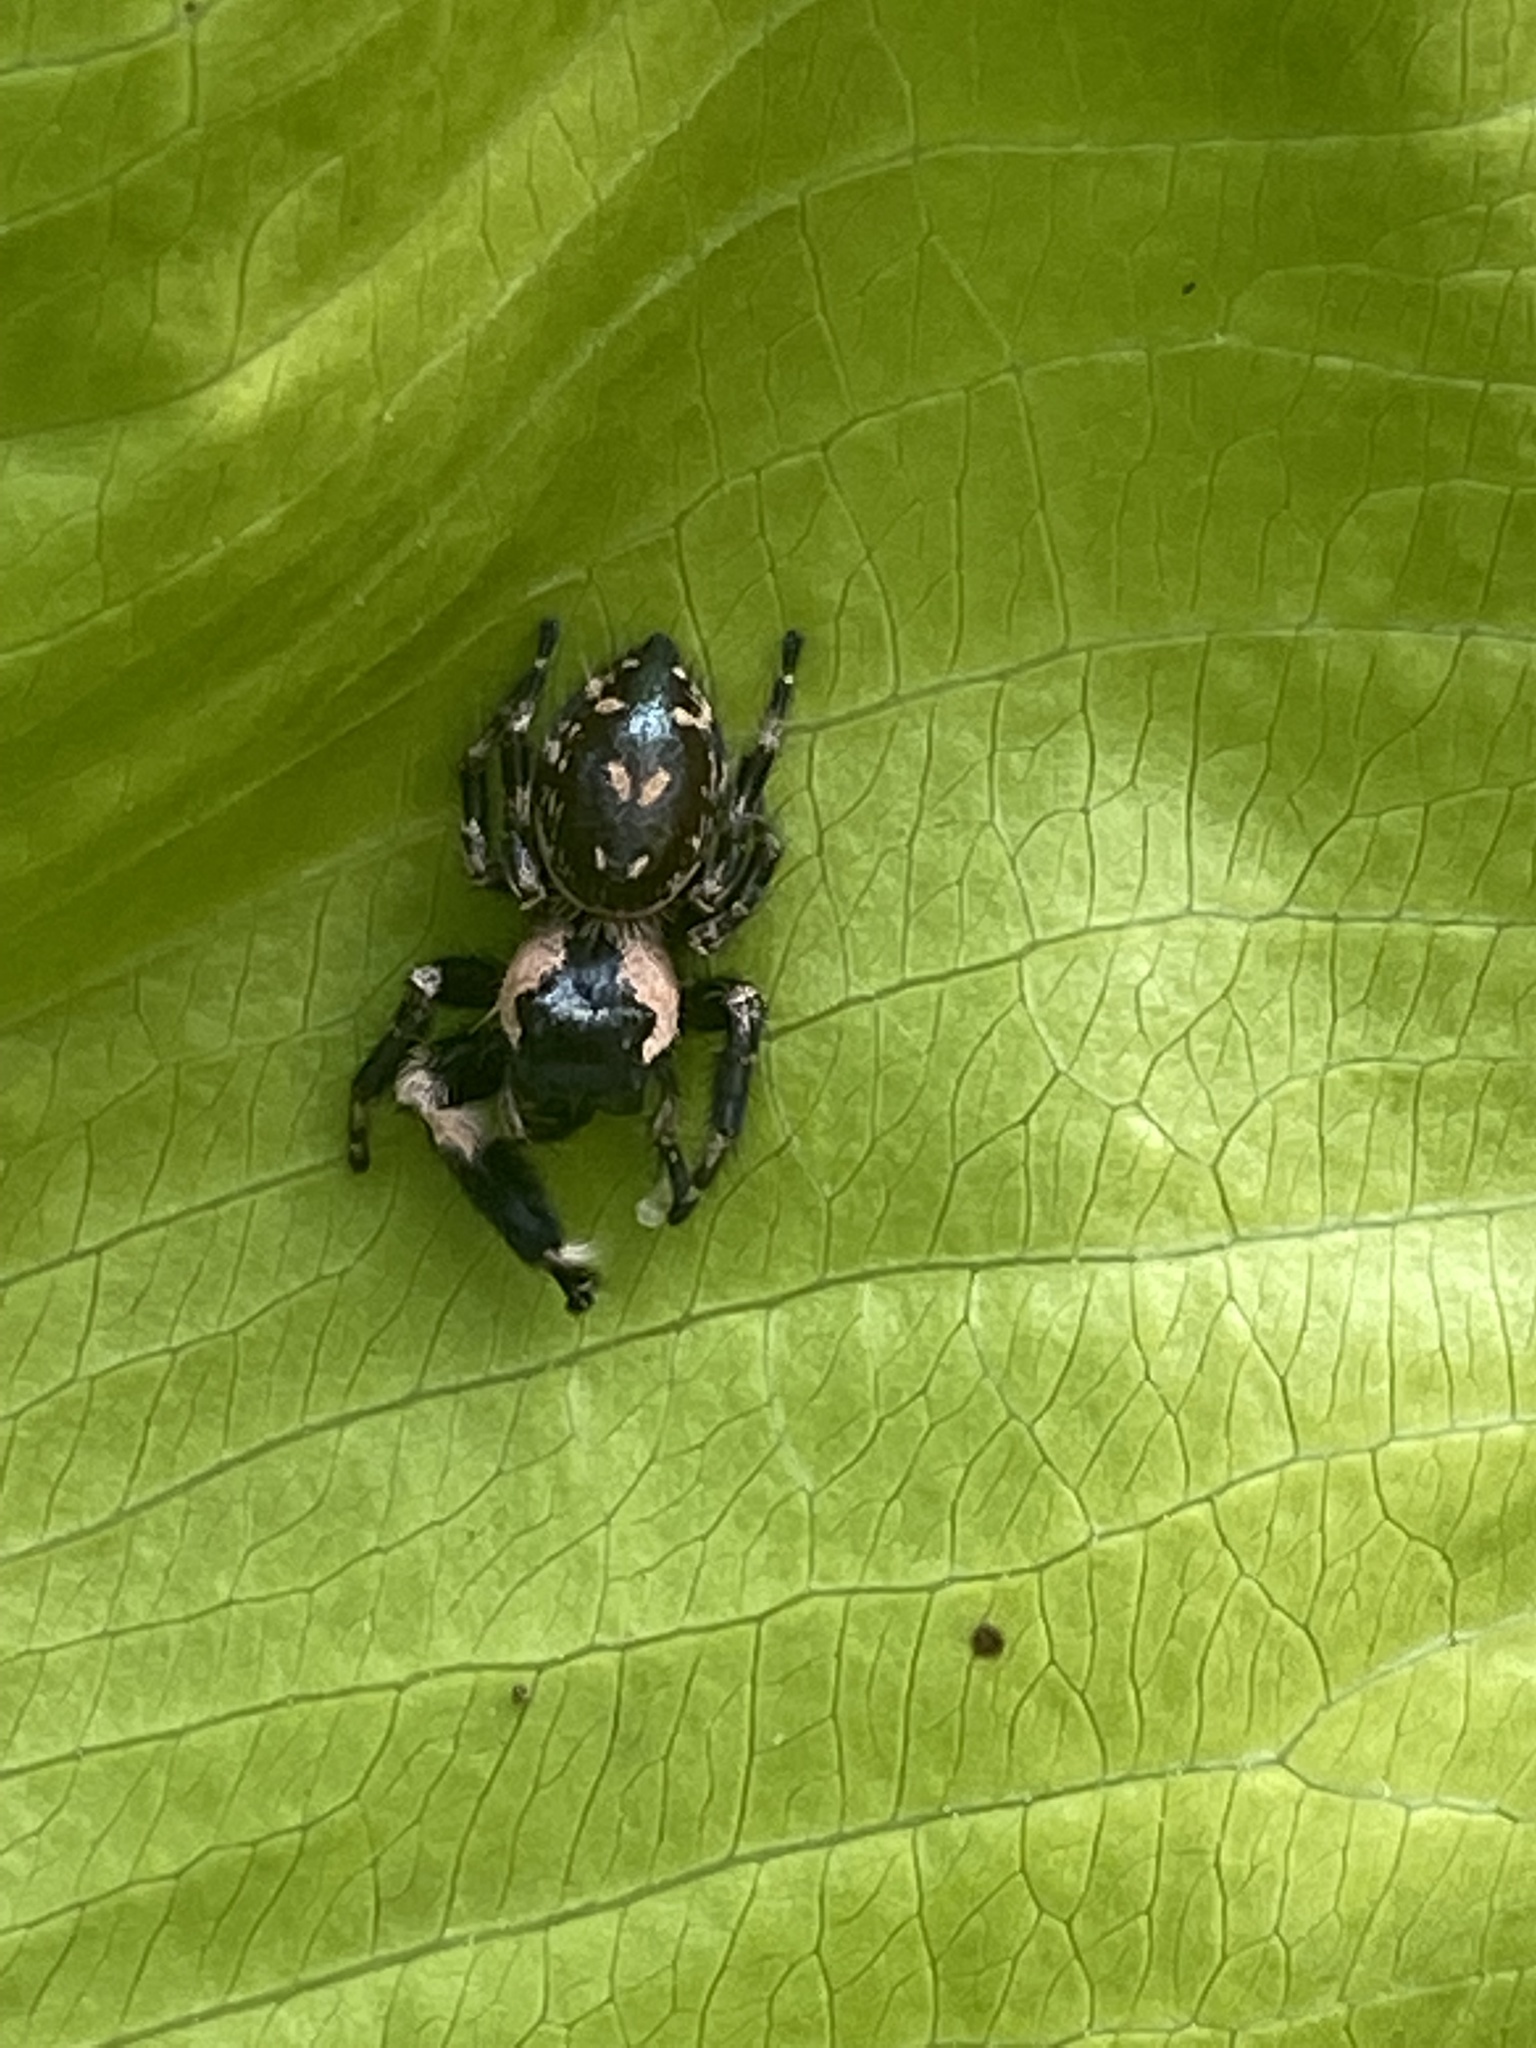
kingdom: Animalia
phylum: Arthropoda
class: Arachnida
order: Araneae
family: Salticidae
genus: Phidippus
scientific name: Phidippus otiosus
